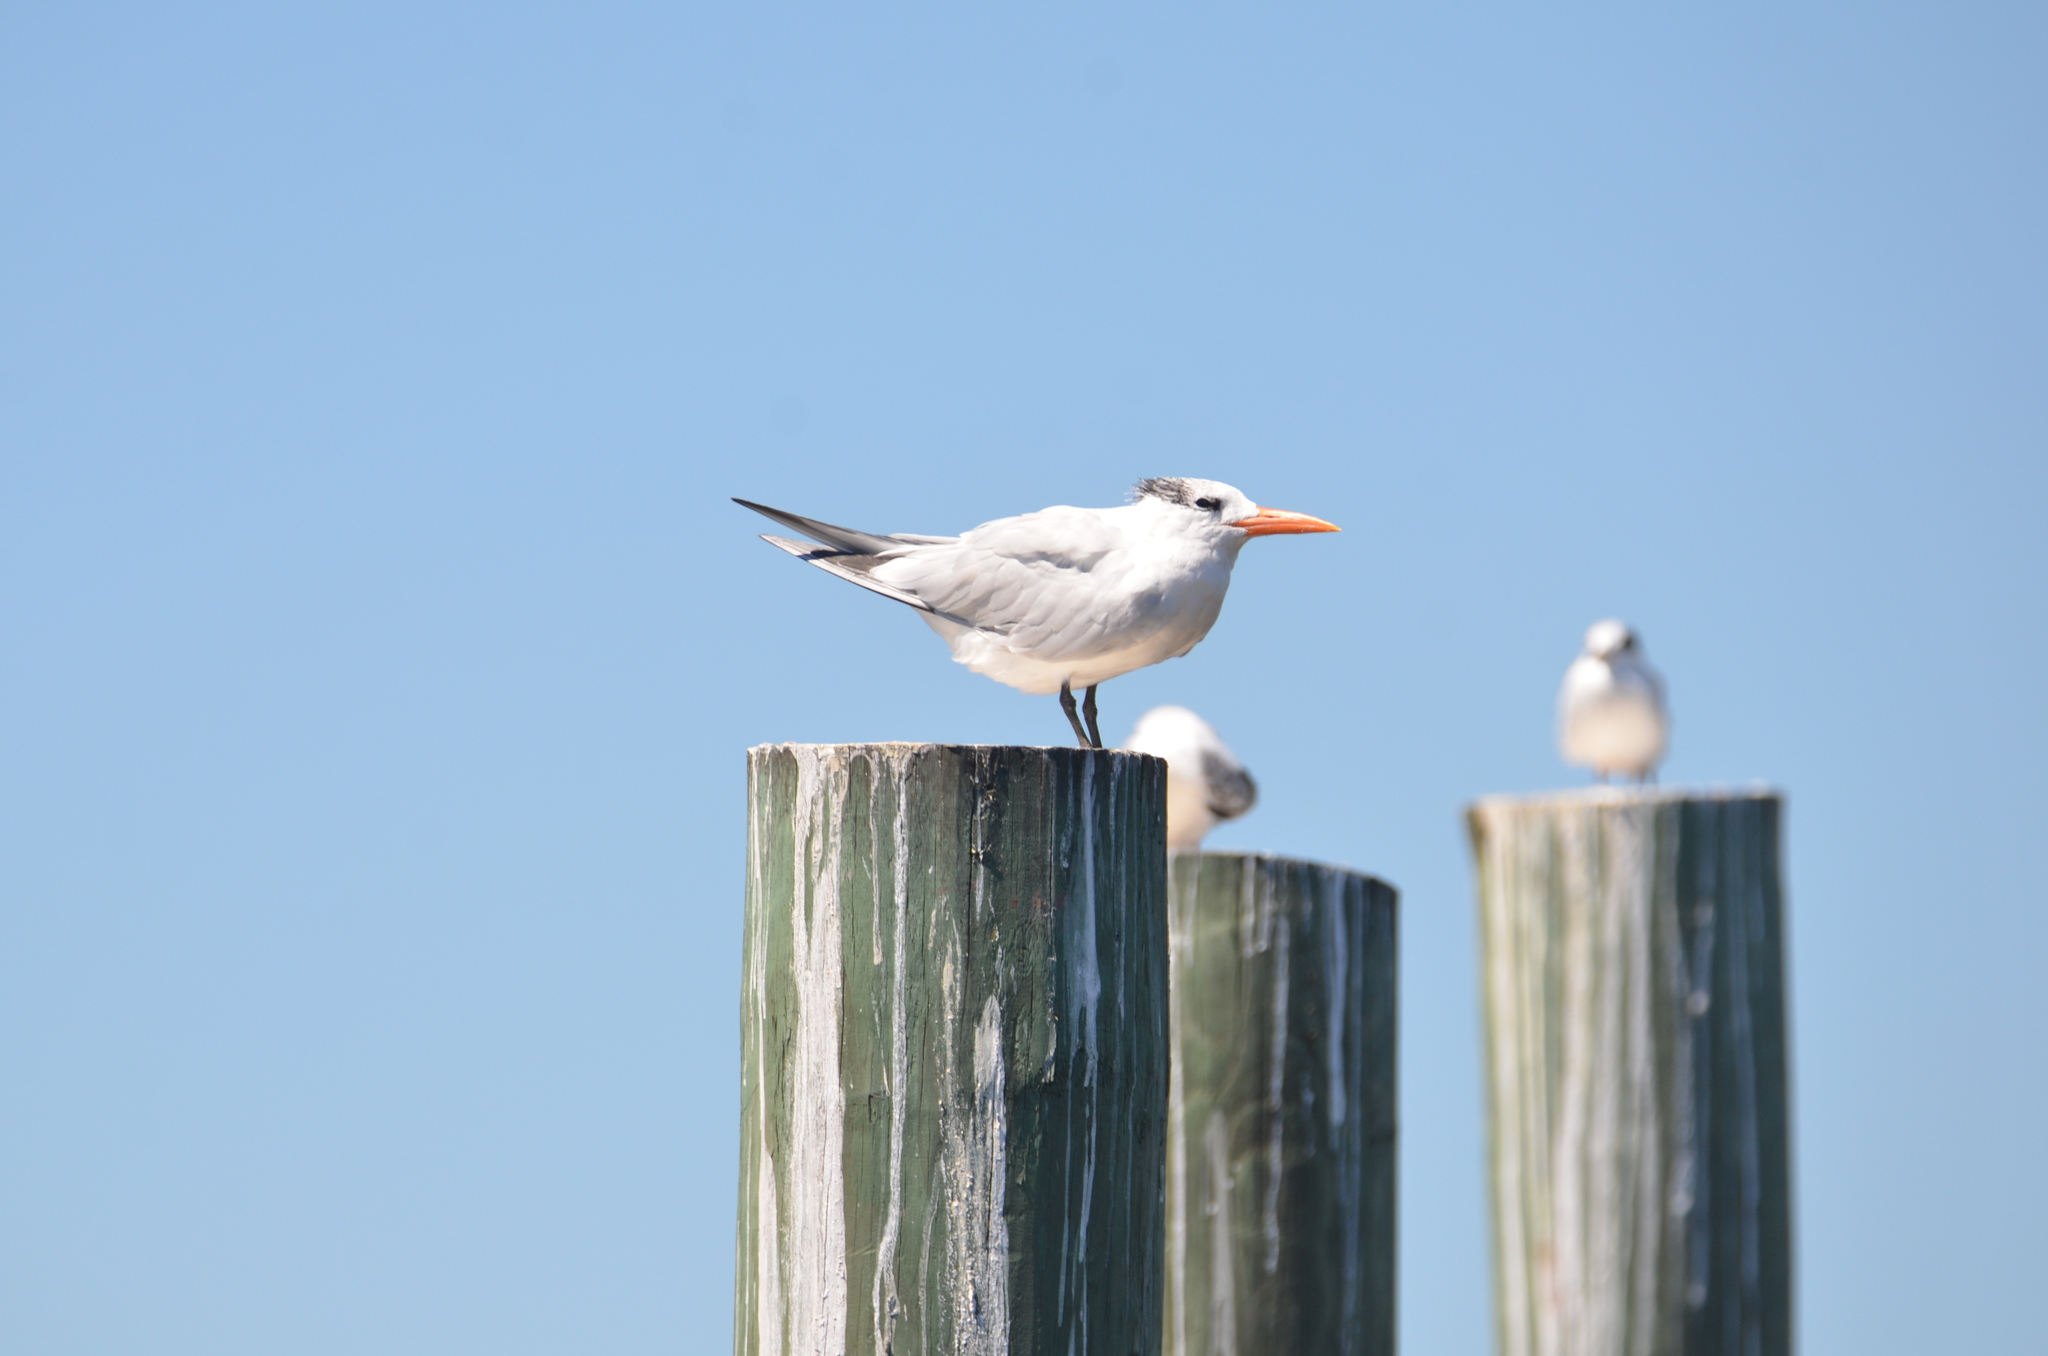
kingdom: Animalia
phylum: Chordata
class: Aves
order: Charadriiformes
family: Laridae
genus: Thalasseus
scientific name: Thalasseus maximus
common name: Royal tern
